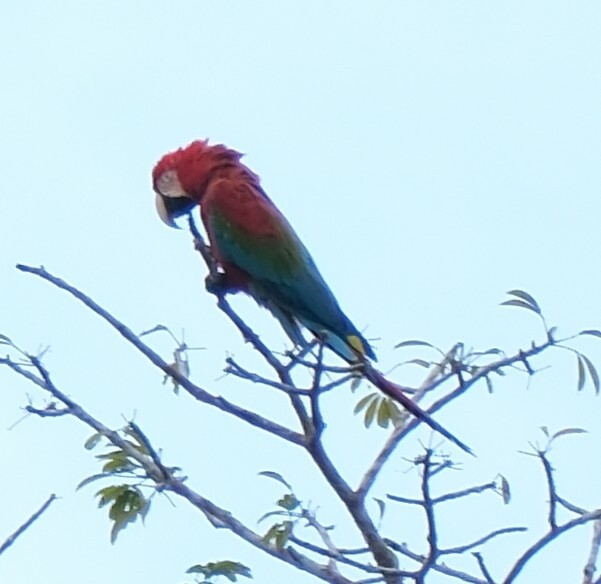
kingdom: Animalia
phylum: Chordata
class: Aves
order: Psittaciformes
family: Psittacidae
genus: Ara
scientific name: Ara chloropterus
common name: Red-and-green macaw
